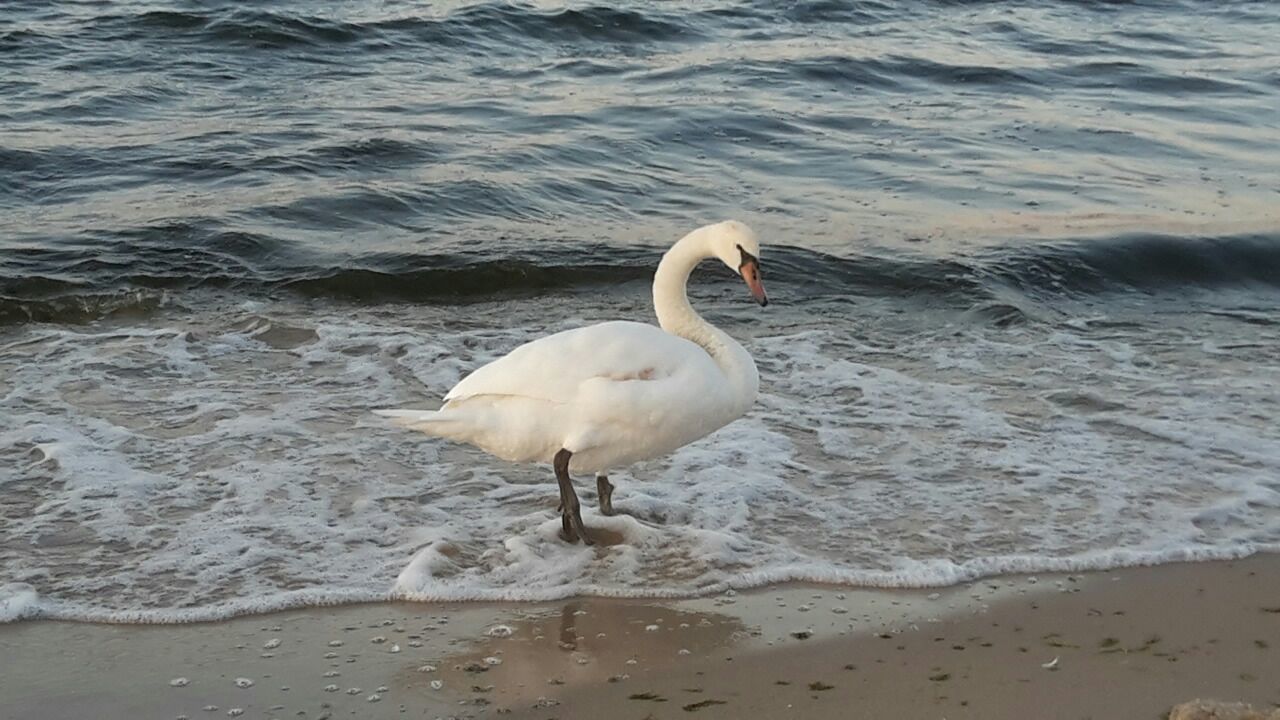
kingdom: Animalia
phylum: Chordata
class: Aves
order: Anseriformes
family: Anatidae
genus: Cygnus
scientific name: Cygnus olor
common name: Mute swan
